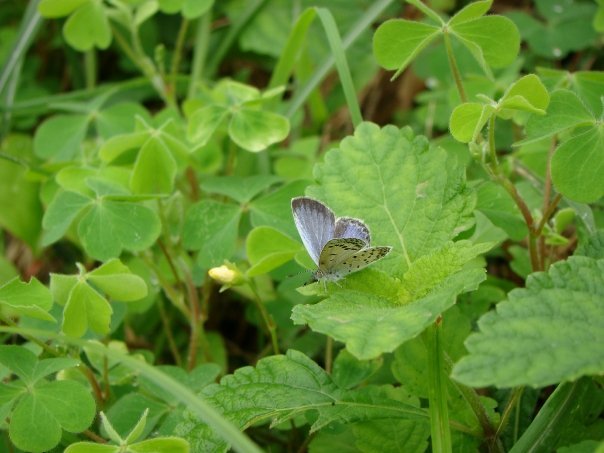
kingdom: Animalia
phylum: Arthropoda
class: Insecta
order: Lepidoptera
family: Lycaenidae
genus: Pseudozizeeria
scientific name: Pseudozizeeria maha
